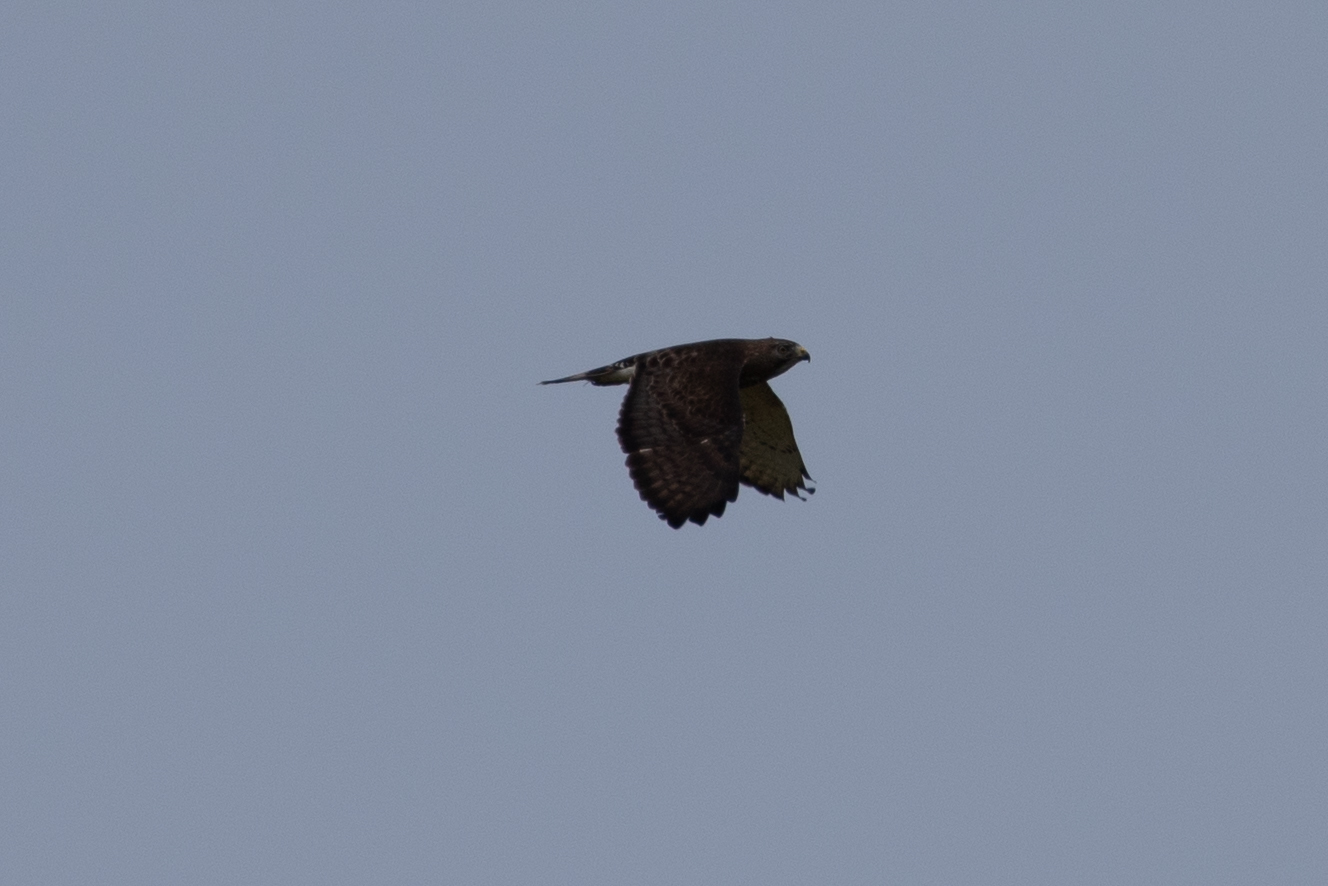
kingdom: Animalia
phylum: Chordata
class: Aves
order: Accipitriformes
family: Accipitridae
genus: Buteo
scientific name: Buteo platypterus
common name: Broad-winged hawk
